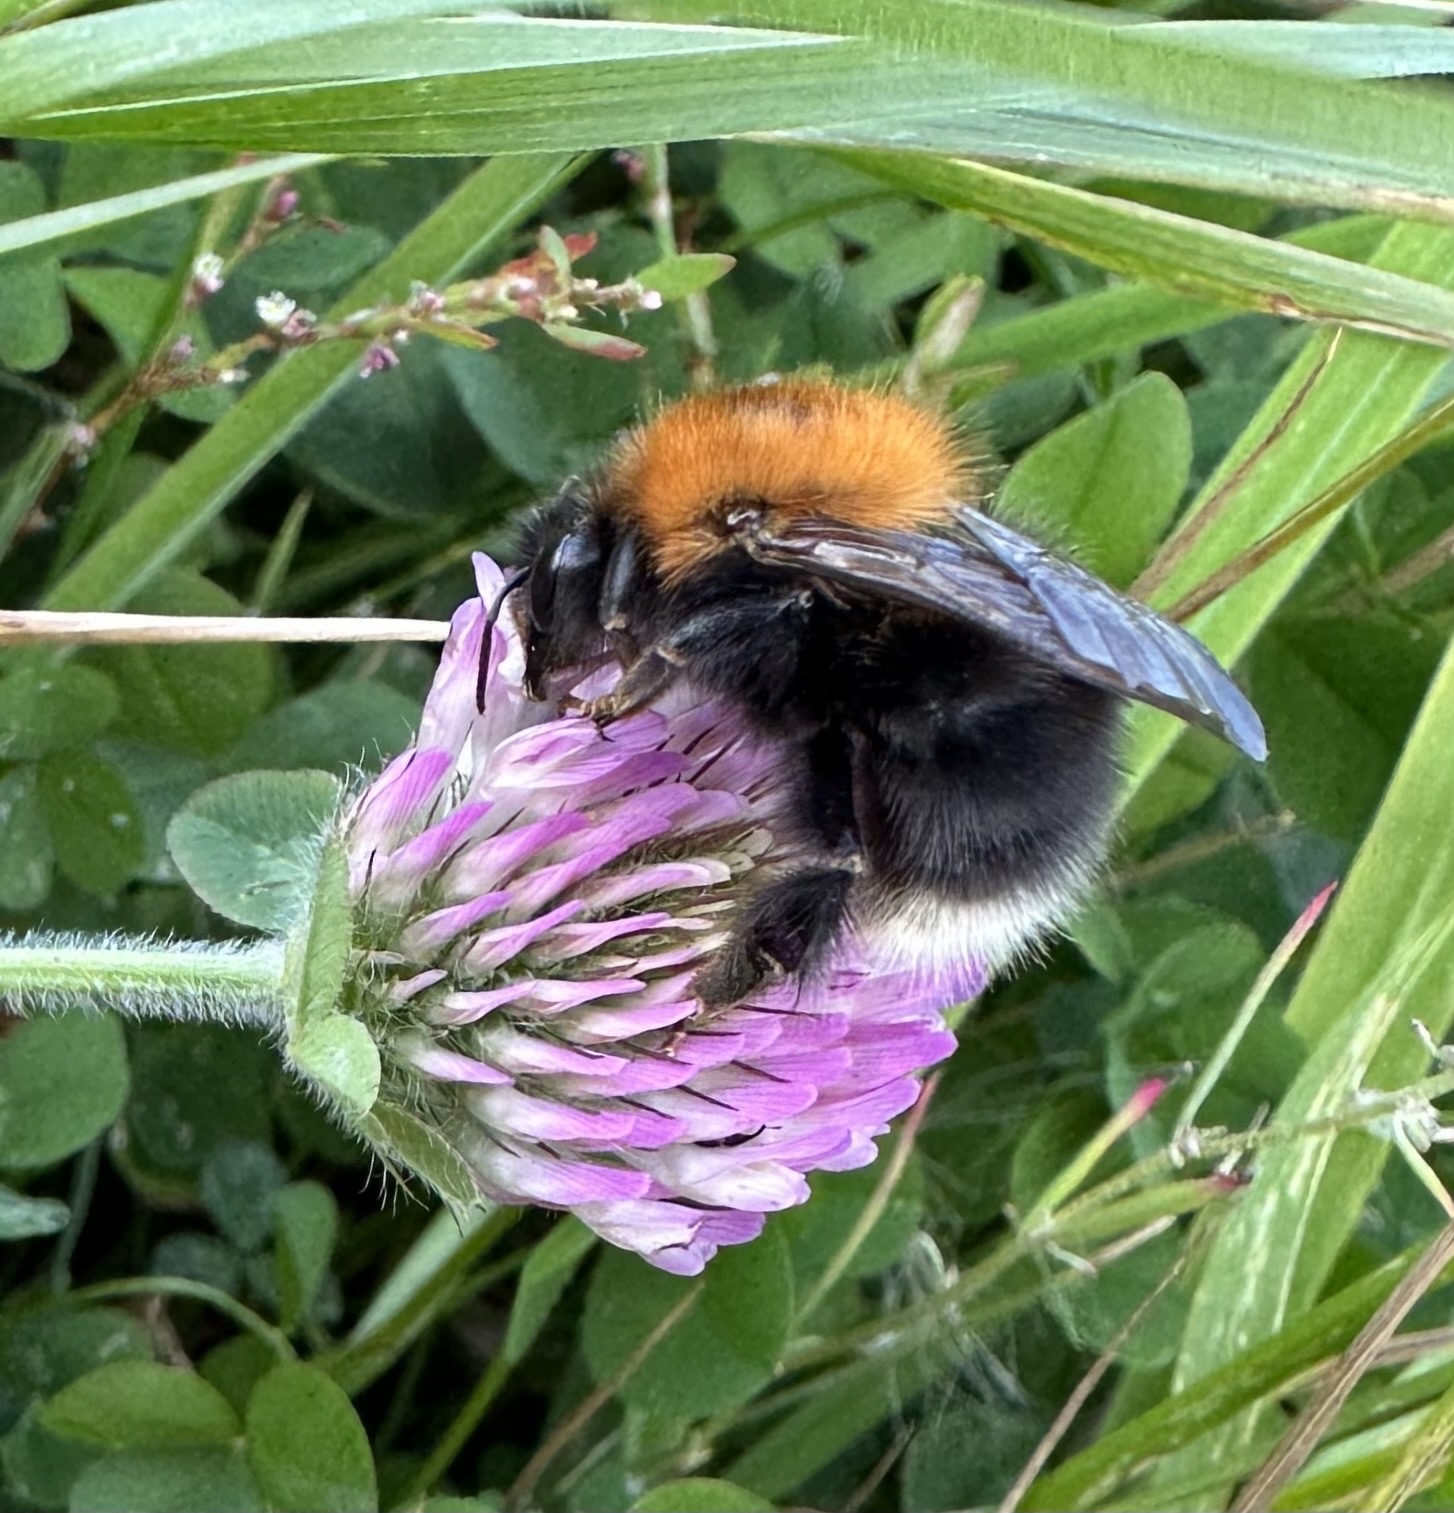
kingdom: Animalia
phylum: Arthropoda
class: Insecta
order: Hymenoptera
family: Apidae
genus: Bombus
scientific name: Bombus hypnorum
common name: New garden bumblebee
